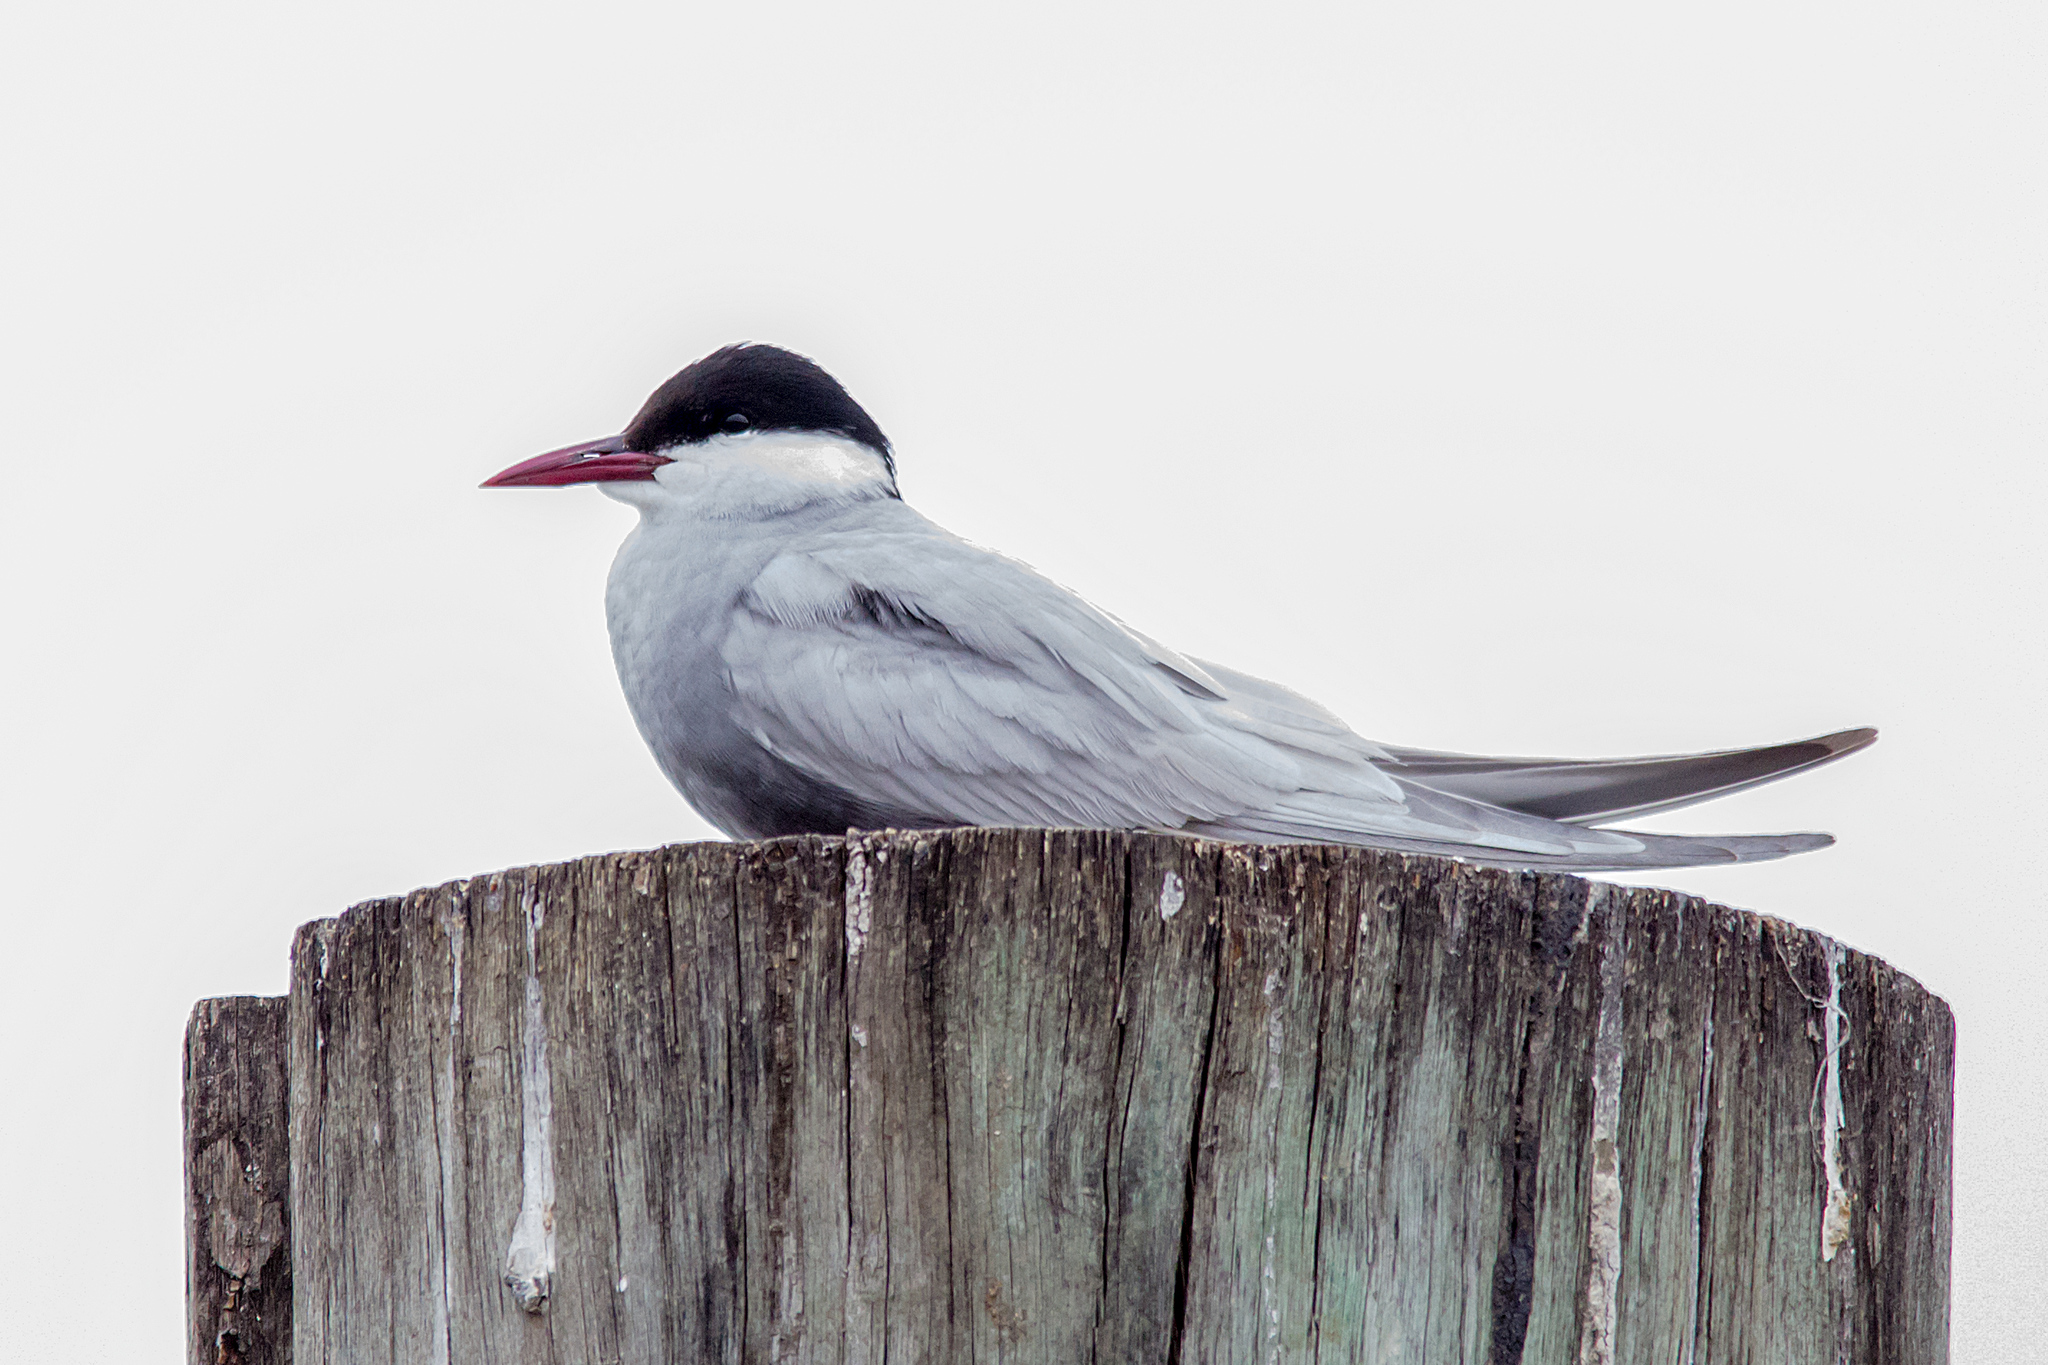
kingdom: Animalia
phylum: Chordata
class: Aves
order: Charadriiformes
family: Laridae
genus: Chlidonias
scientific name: Chlidonias hybrida
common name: Whiskered tern
